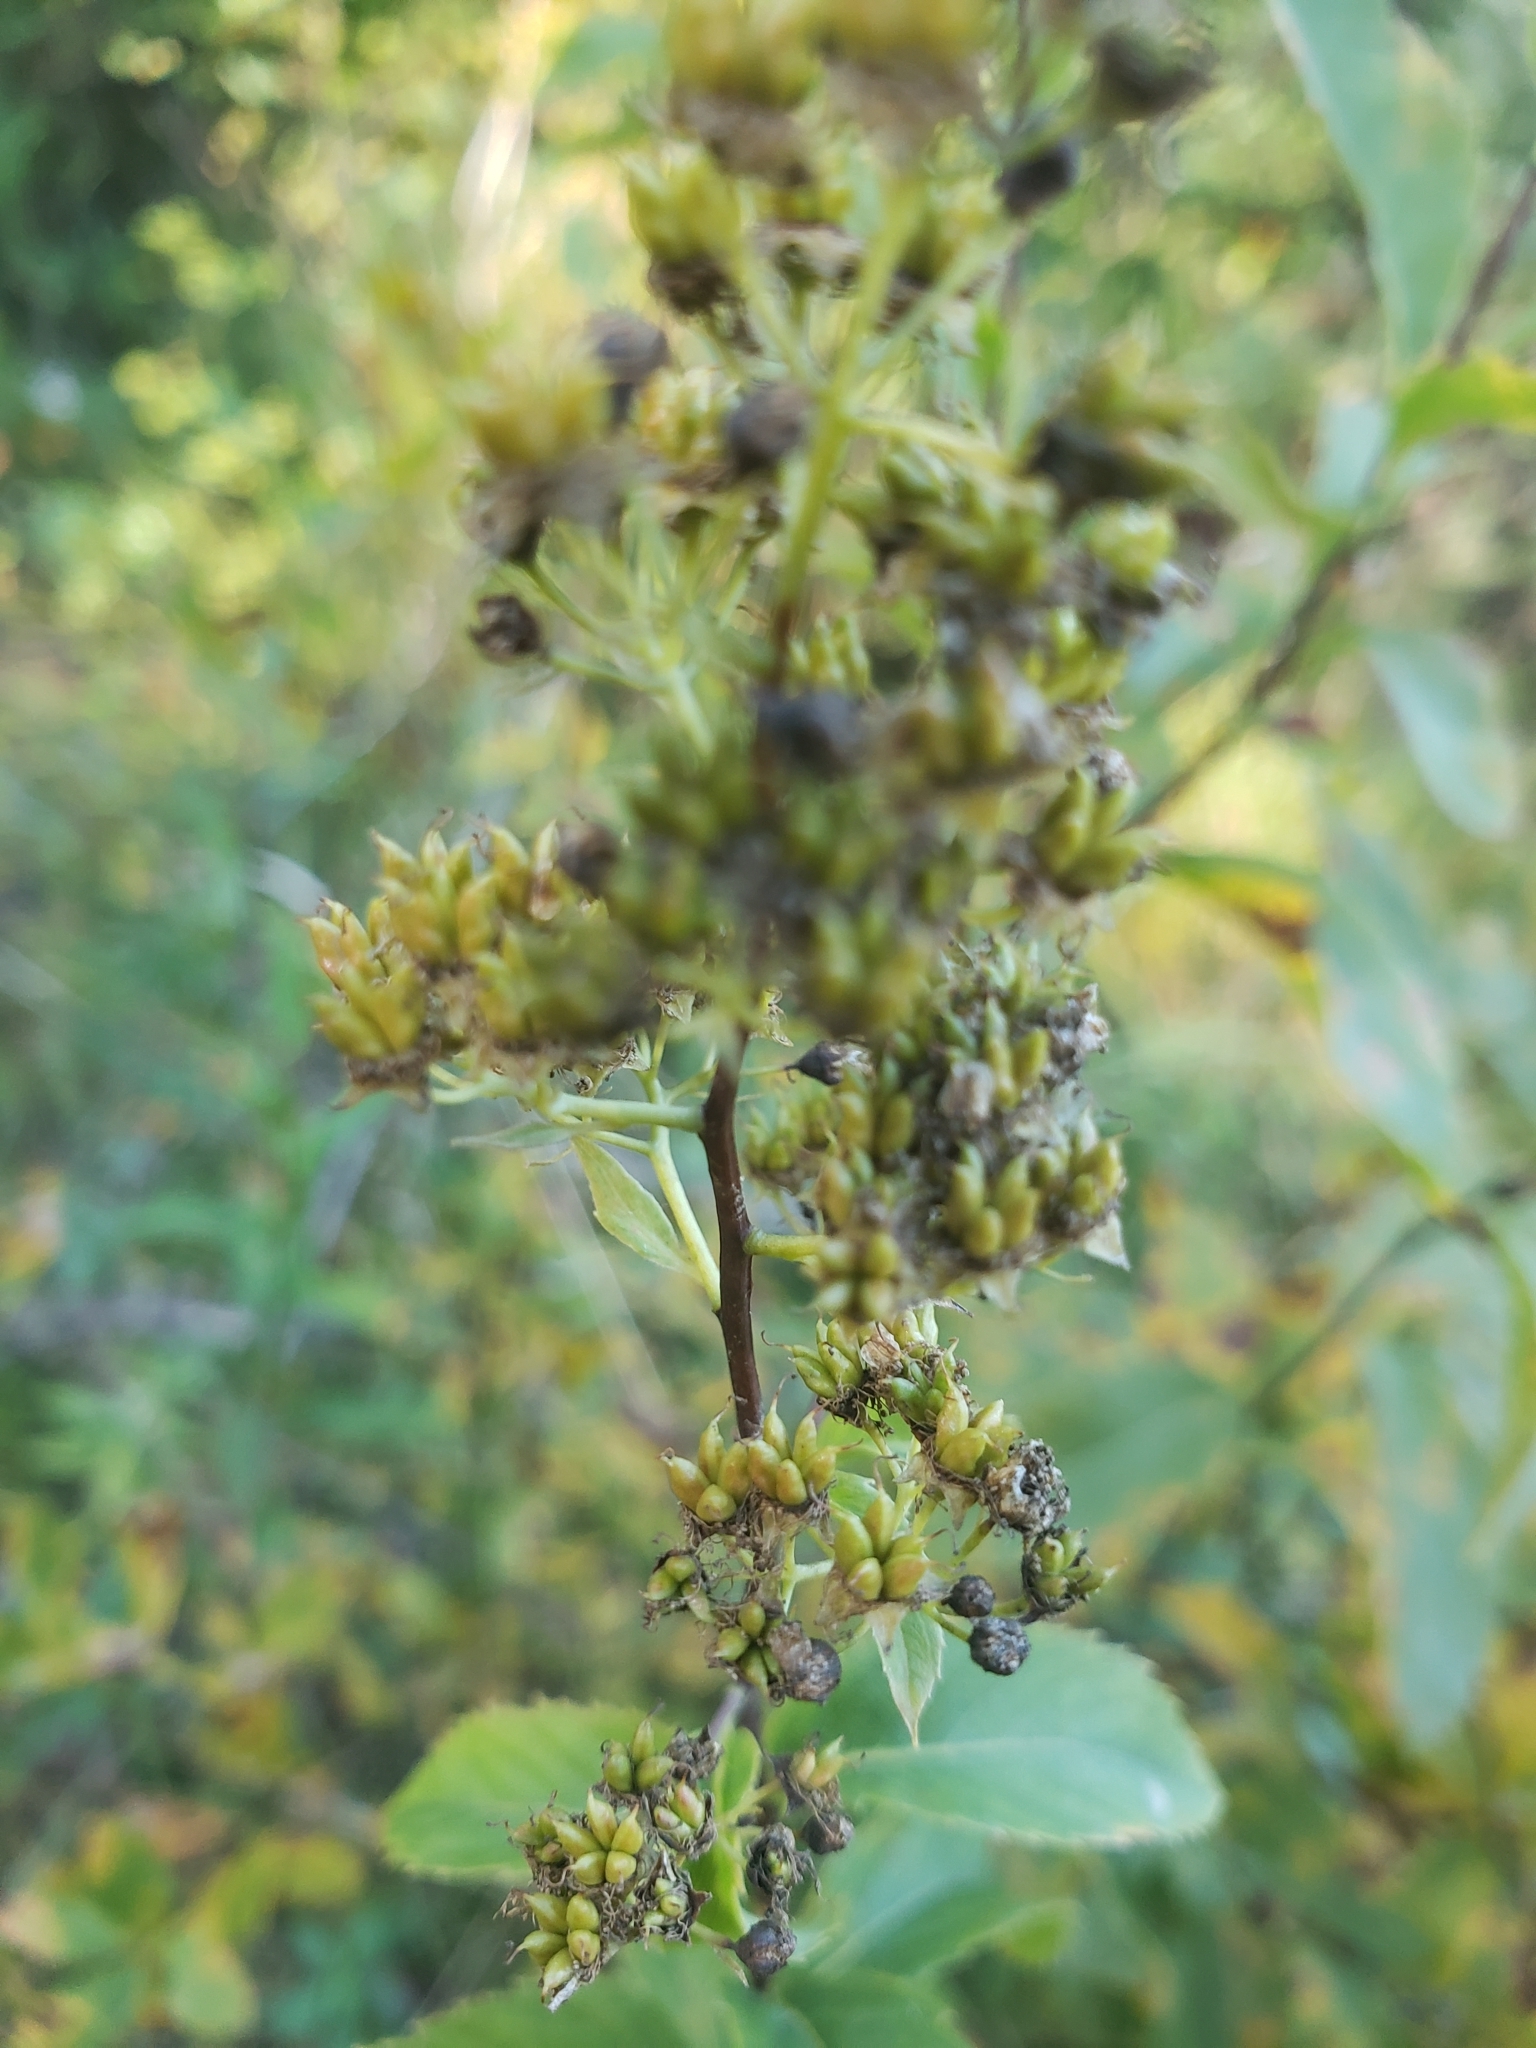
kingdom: Plantae
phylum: Tracheophyta
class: Magnoliopsida
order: Rosales
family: Rosaceae
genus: Spiraea
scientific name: Spiraea alba
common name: Pale bridewort
